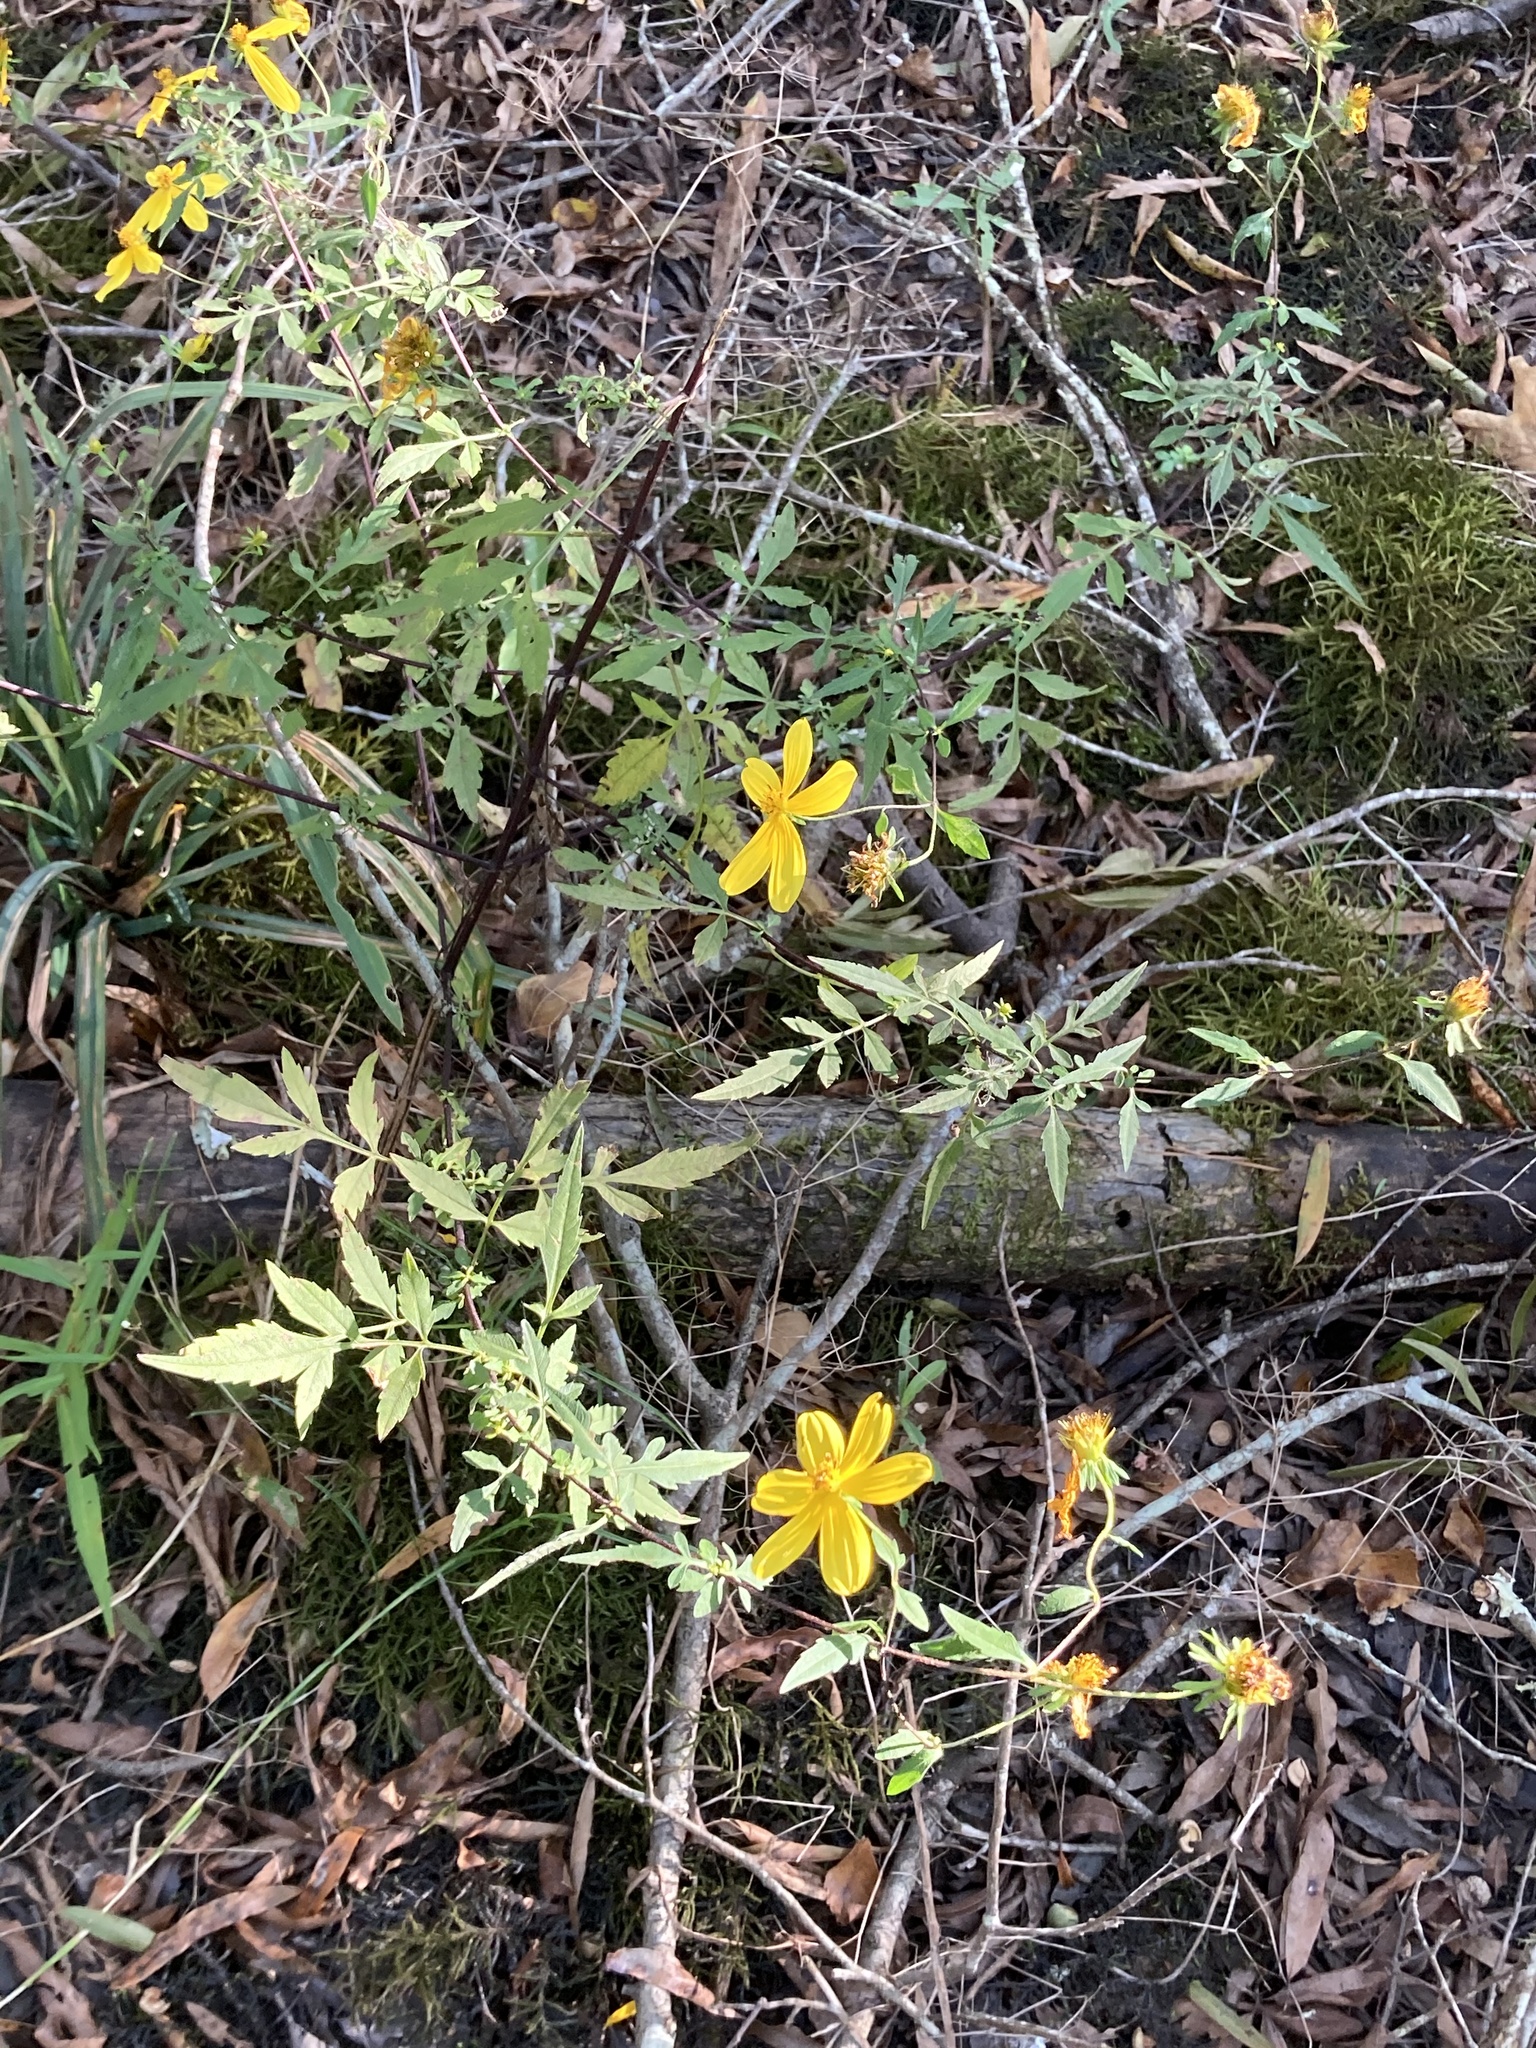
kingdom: Plantae
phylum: Tracheophyta
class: Magnoliopsida
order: Asterales
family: Asteraceae
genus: Bidens
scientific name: Bidens aristosa
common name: Western tickseed
